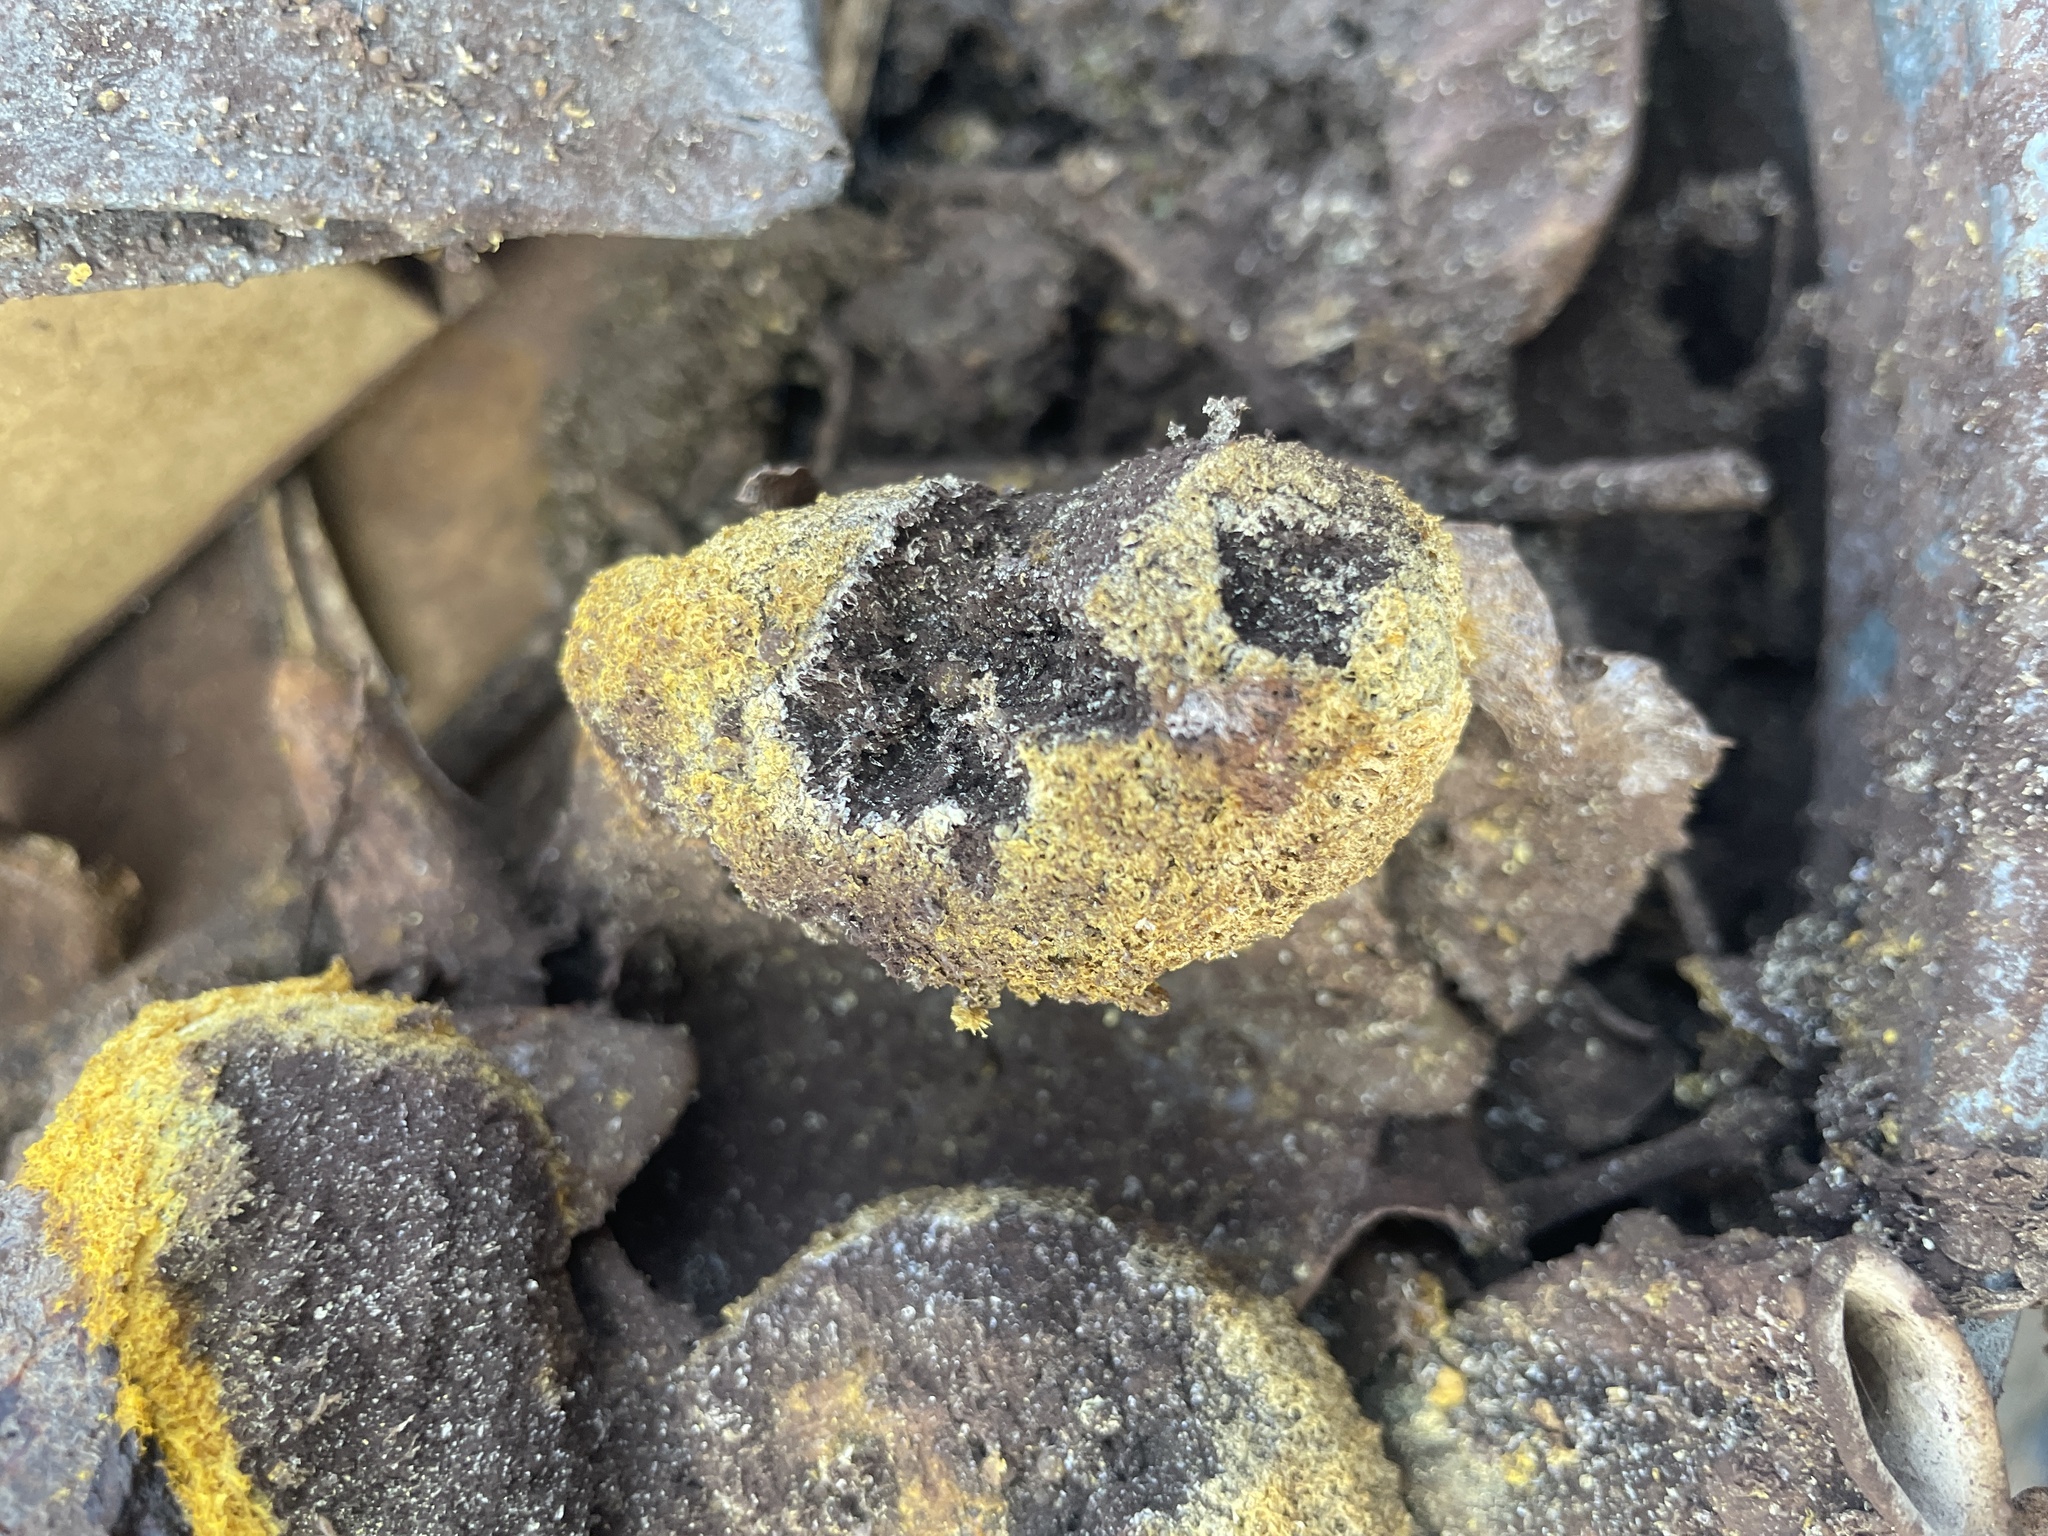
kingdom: Protozoa
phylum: Mycetozoa
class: Myxomycetes
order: Physarales
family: Physaraceae
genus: Fuligo
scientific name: Fuligo septica
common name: Dog vomit slime mold
